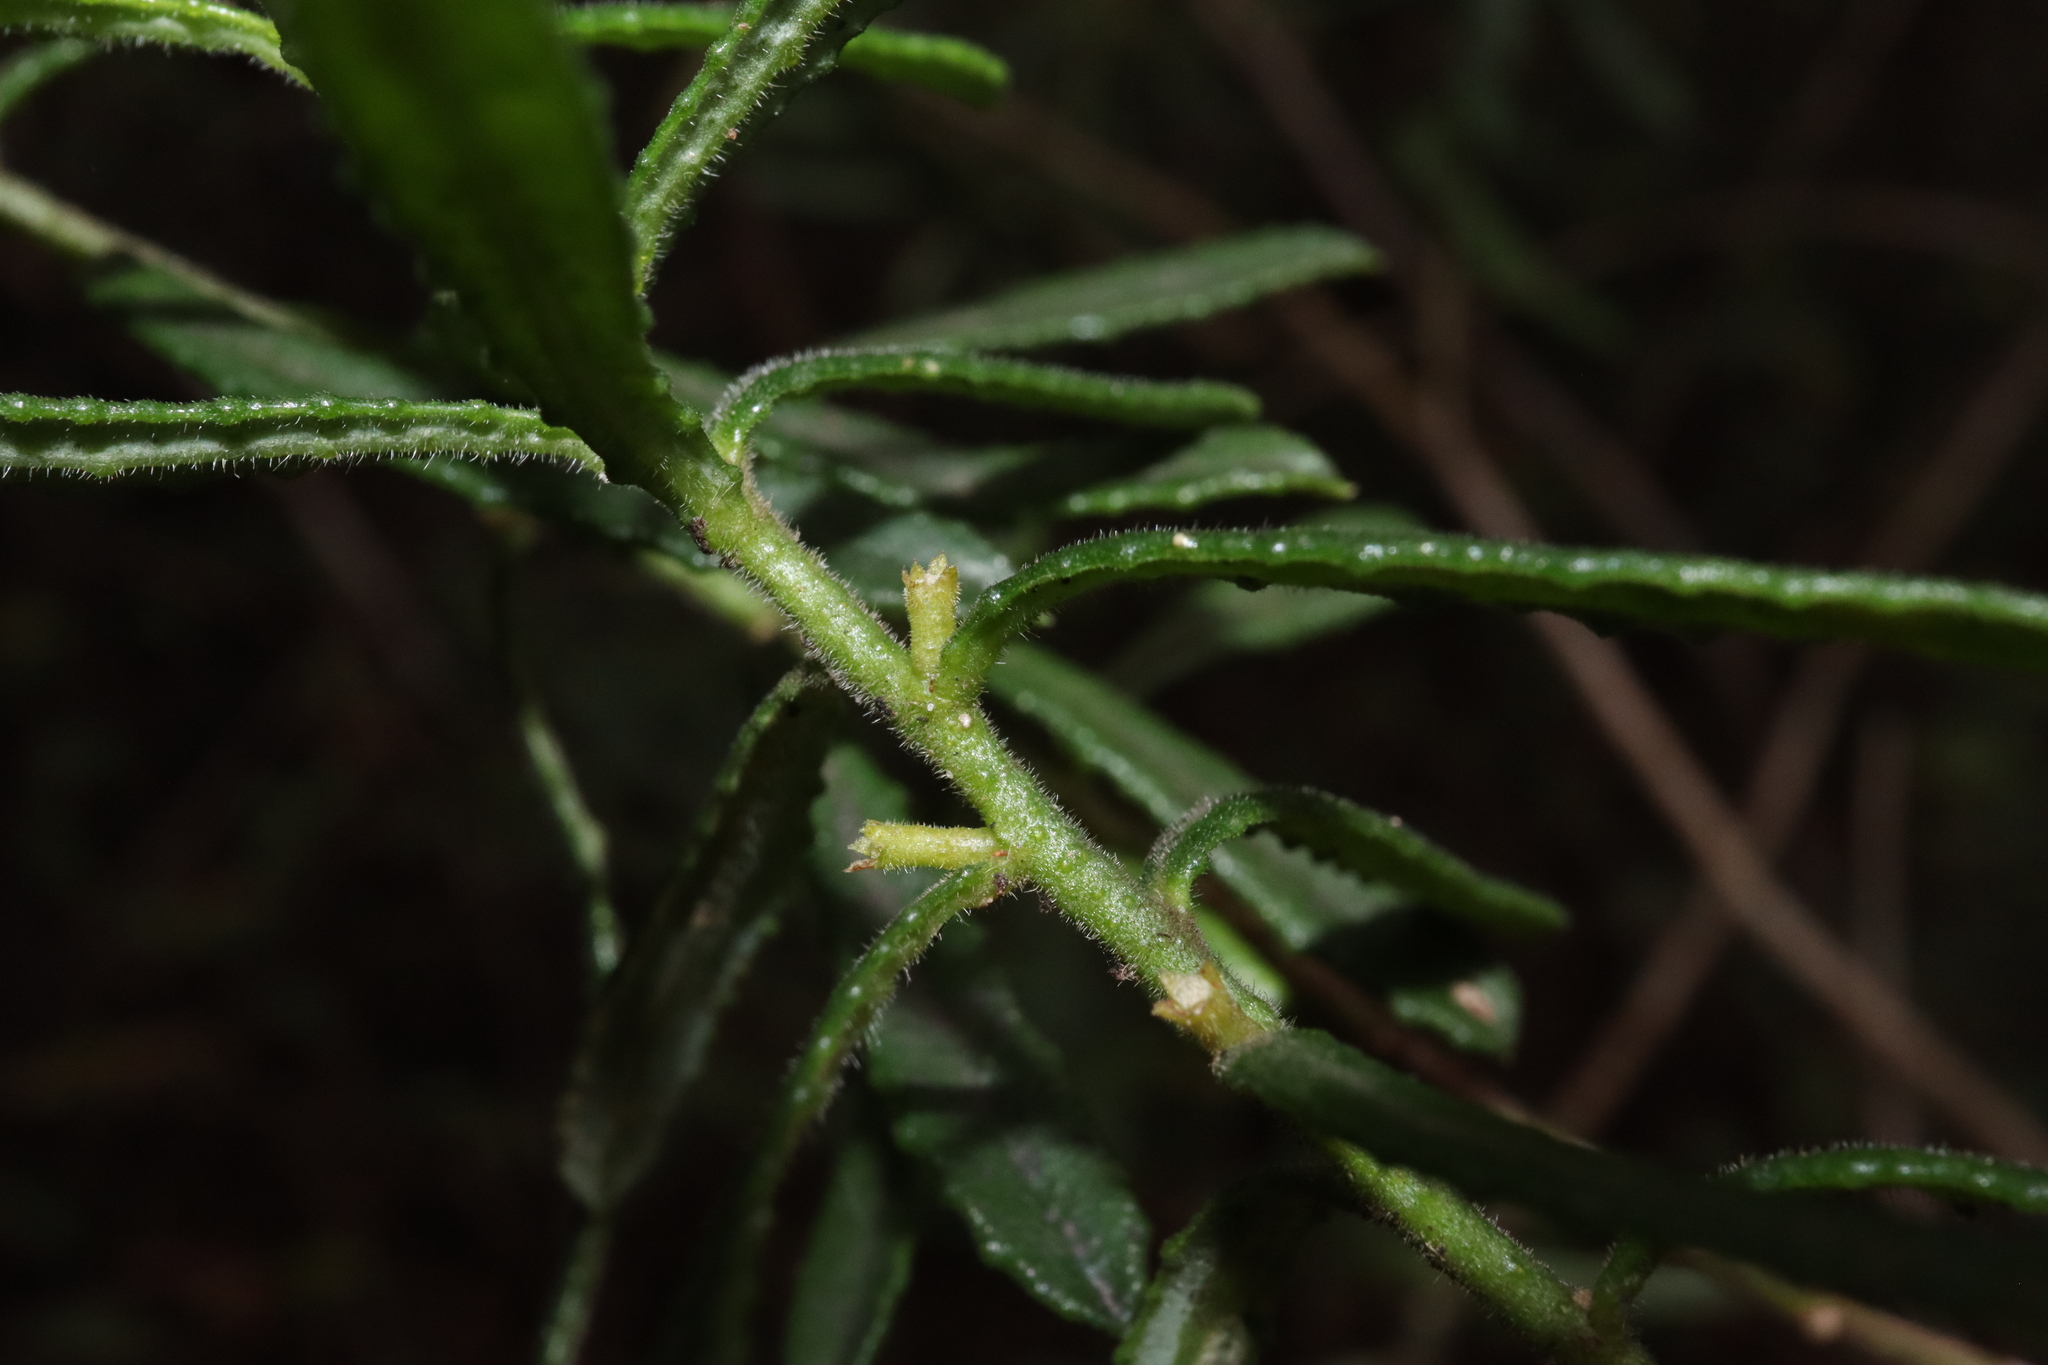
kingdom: Plantae
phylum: Tracheophyta
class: Magnoliopsida
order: Sapindales
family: Rutaceae
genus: Philotheca
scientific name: Philotheca hispidula
